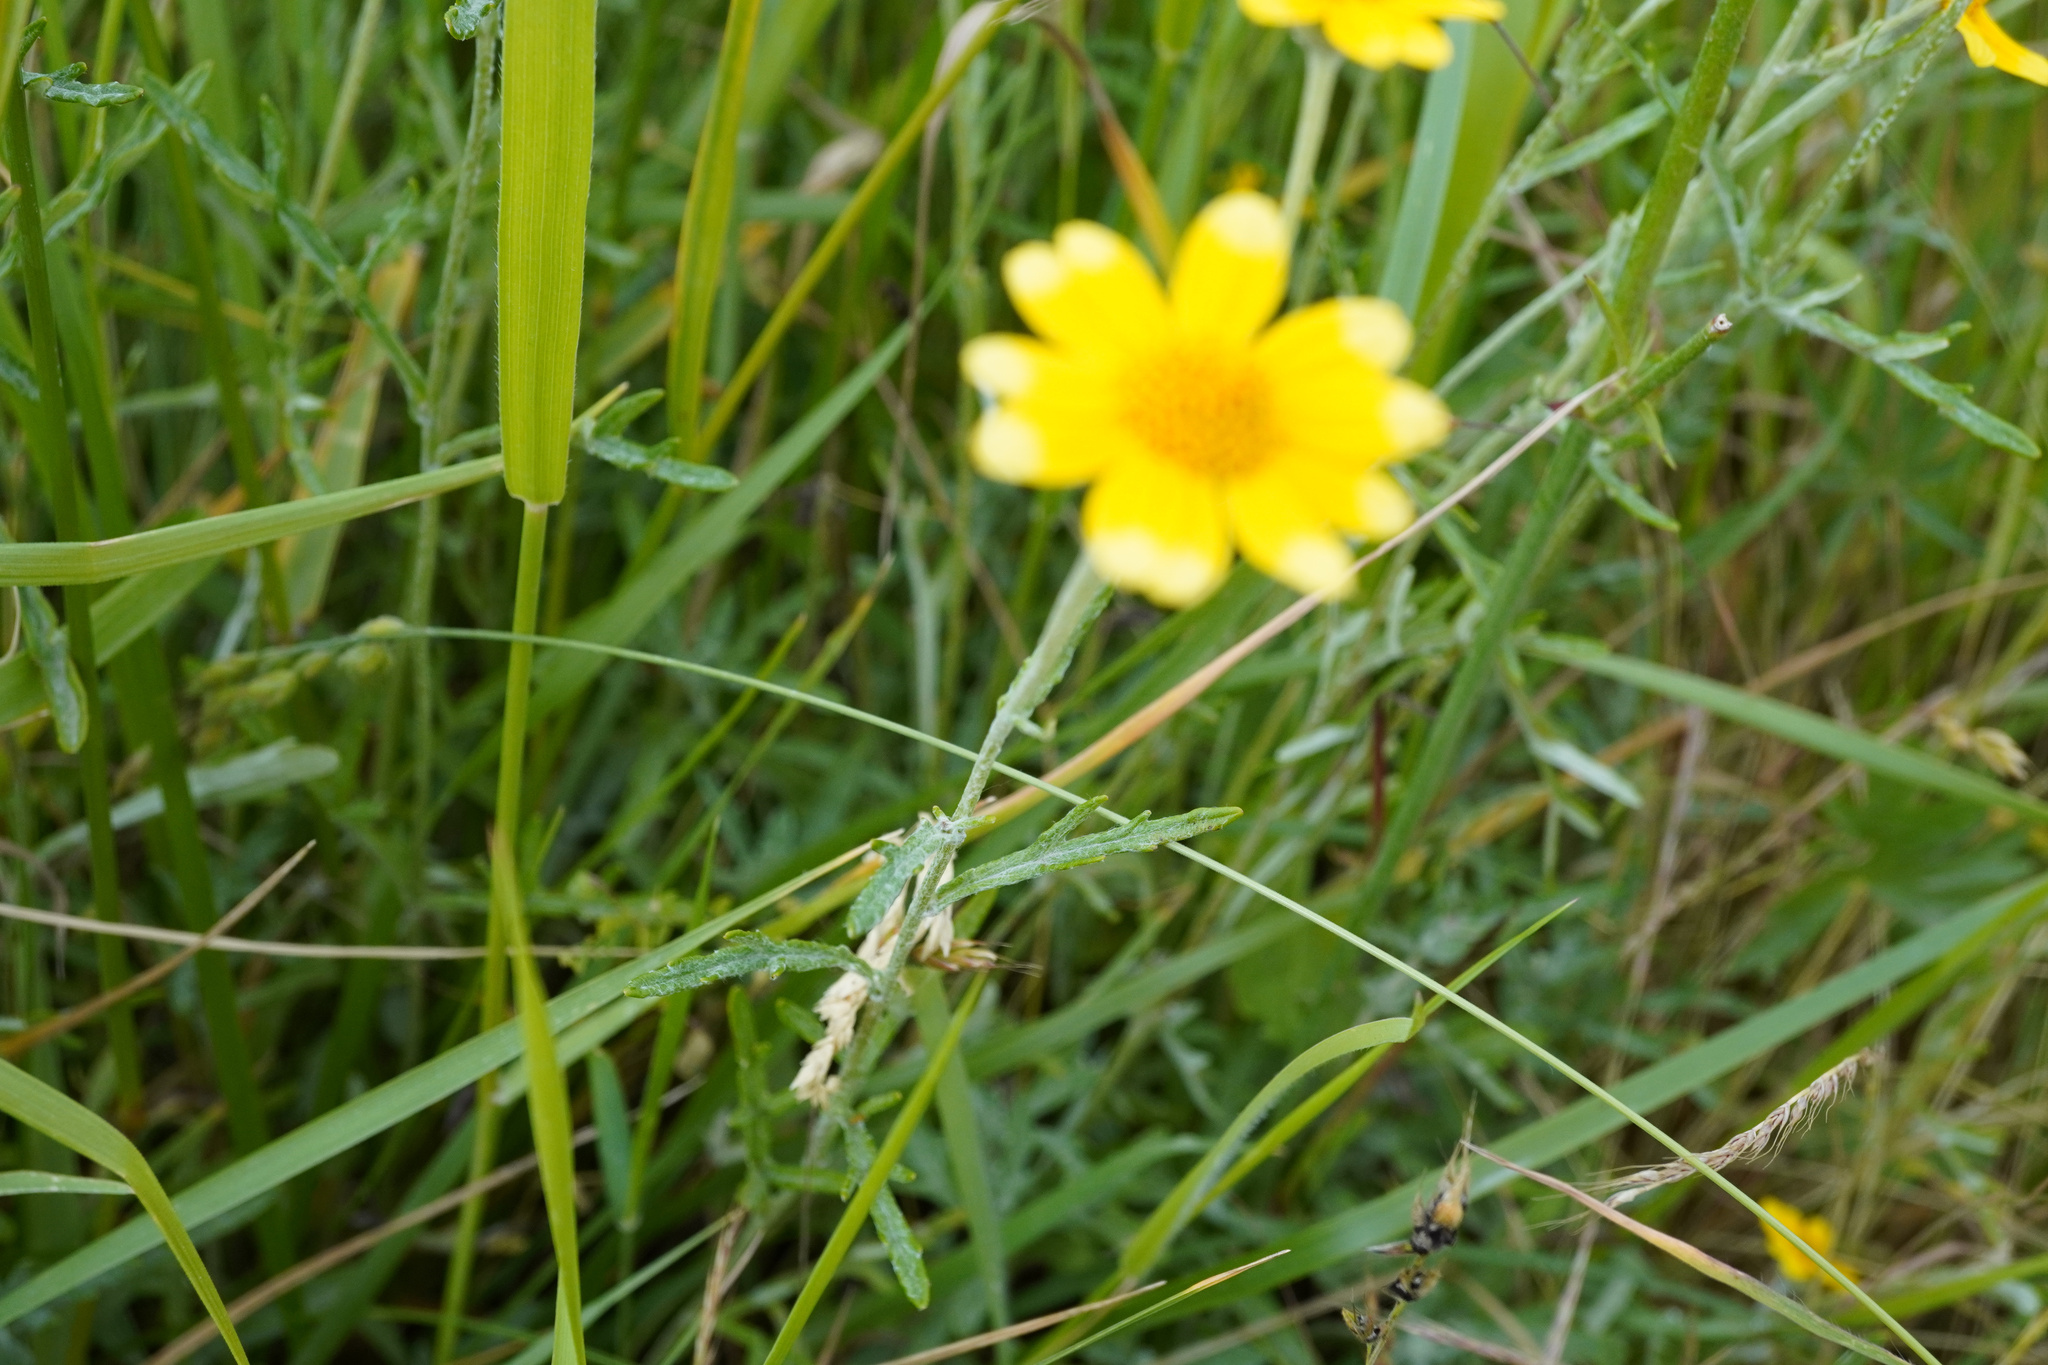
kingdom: Plantae
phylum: Tracheophyta
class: Magnoliopsida
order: Asterales
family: Asteraceae
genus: Eriophyllum
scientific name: Eriophyllum lanatum
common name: Common woolly-sunflower
